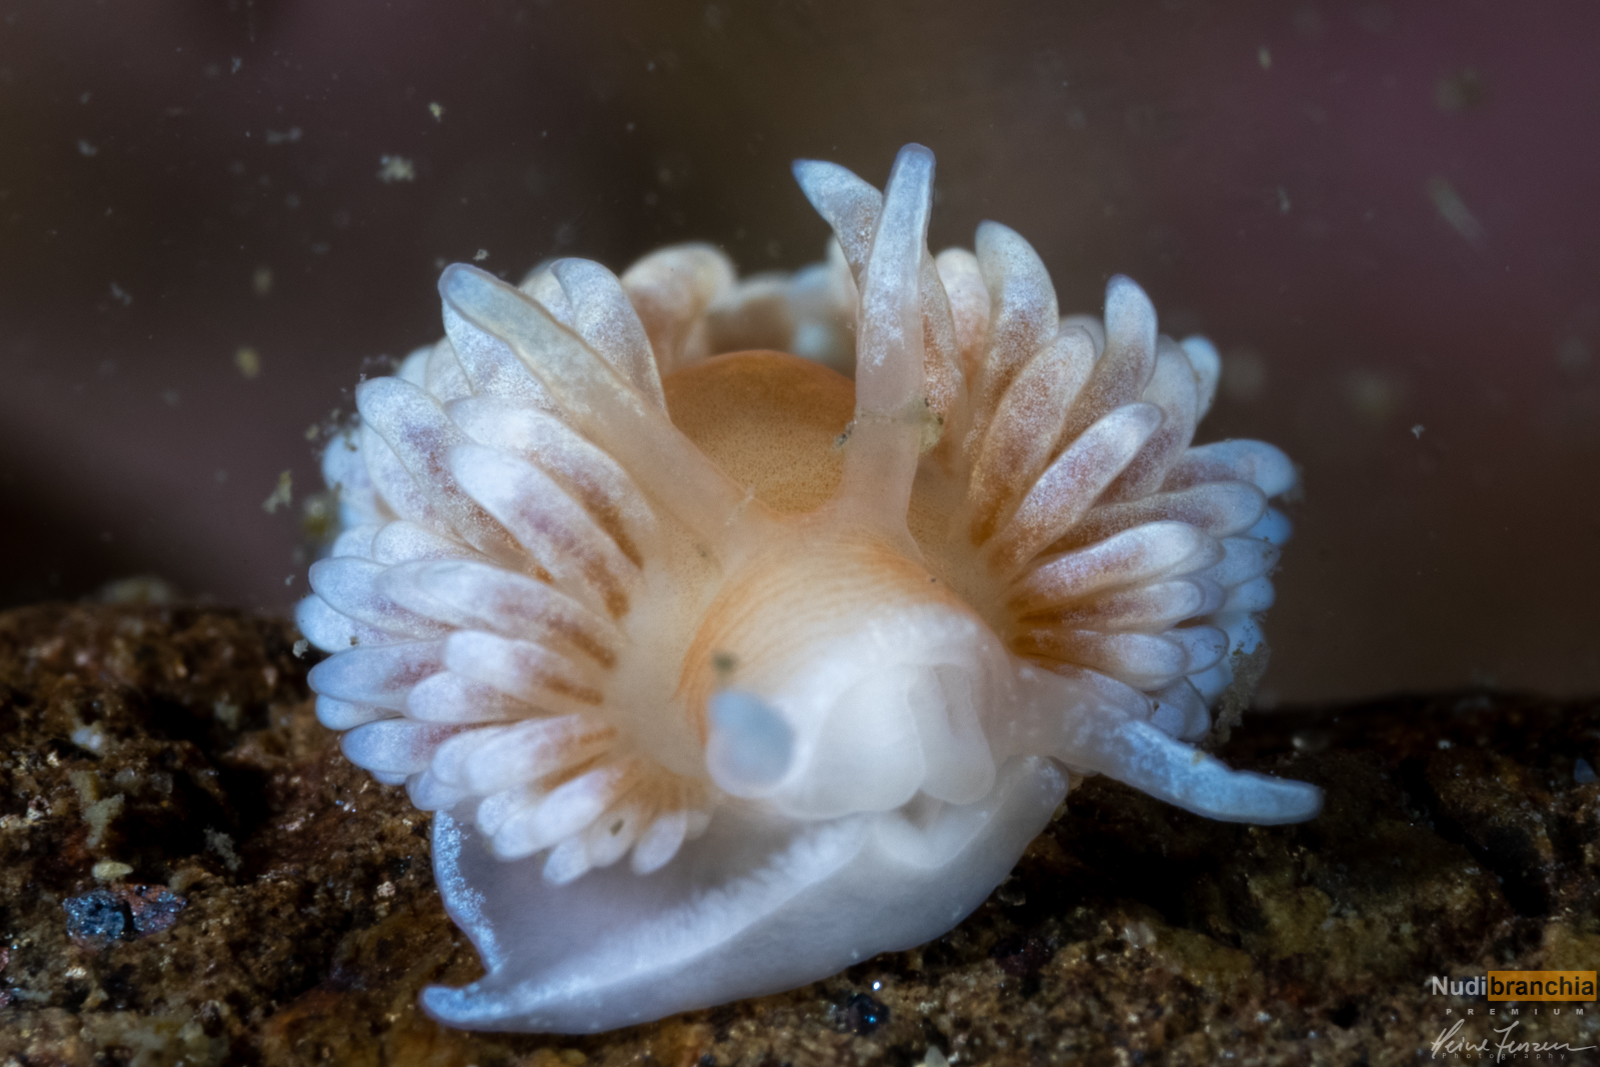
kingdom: Animalia
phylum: Mollusca
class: Gastropoda
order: Nudibranchia
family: Aeolidiidae
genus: Aeolidiella
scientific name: Aeolidiella glauca
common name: Orange-brown aeolid
